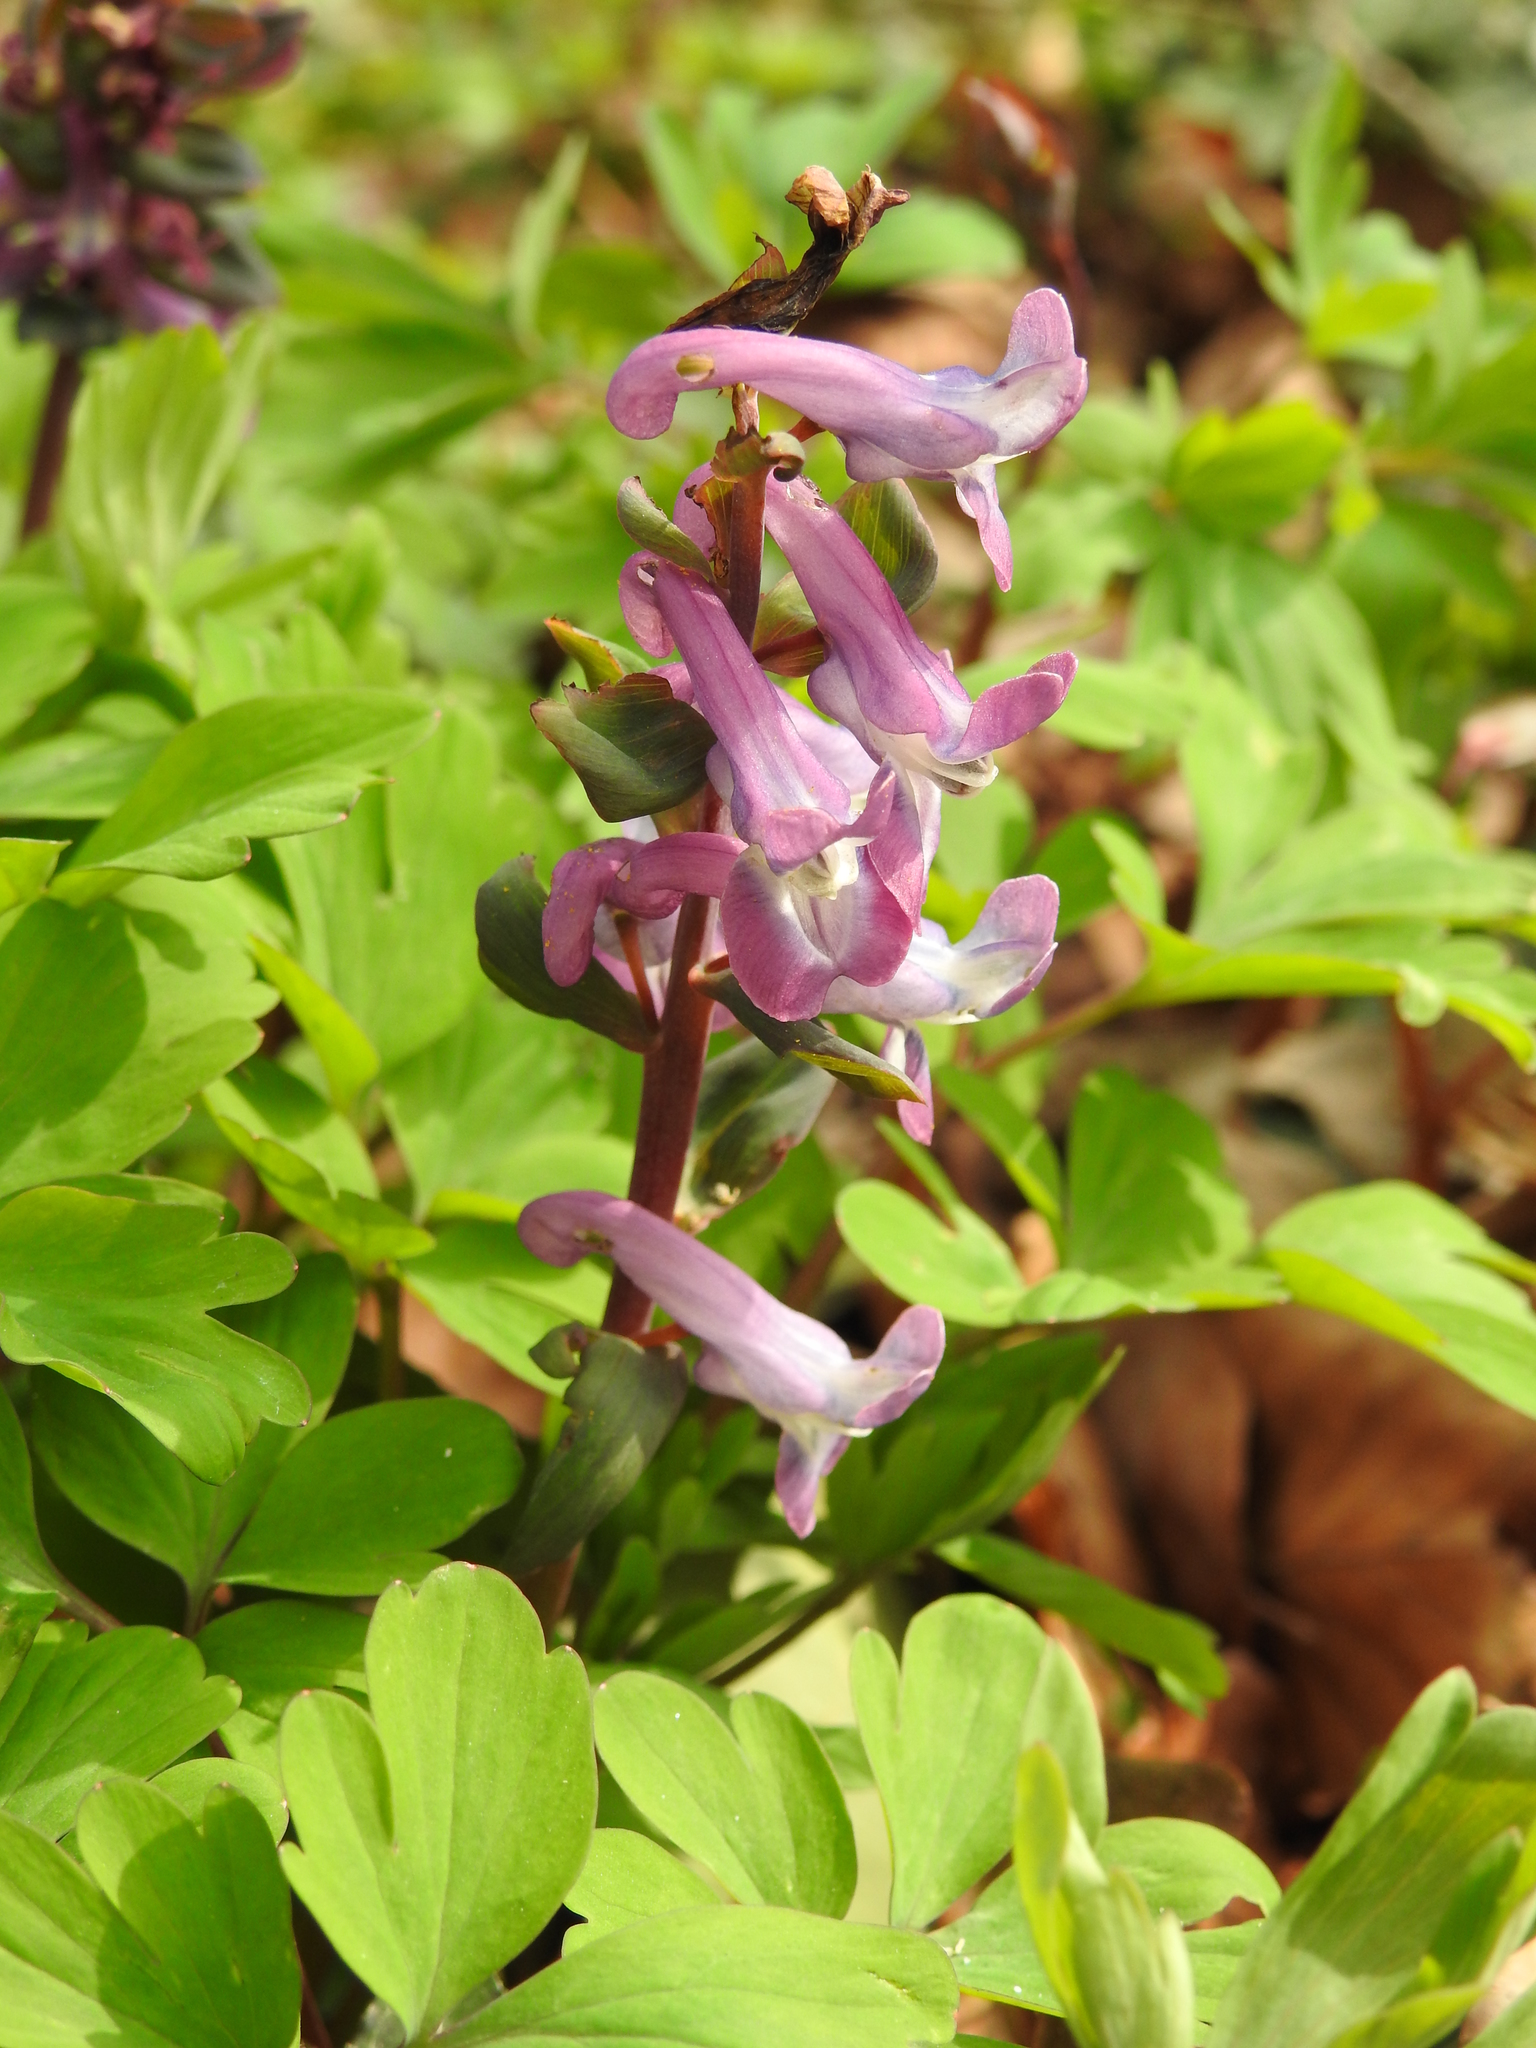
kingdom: Plantae
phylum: Tracheophyta
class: Magnoliopsida
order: Ranunculales
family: Papaveraceae
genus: Corydalis
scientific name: Corydalis cava
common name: Hollowroot
